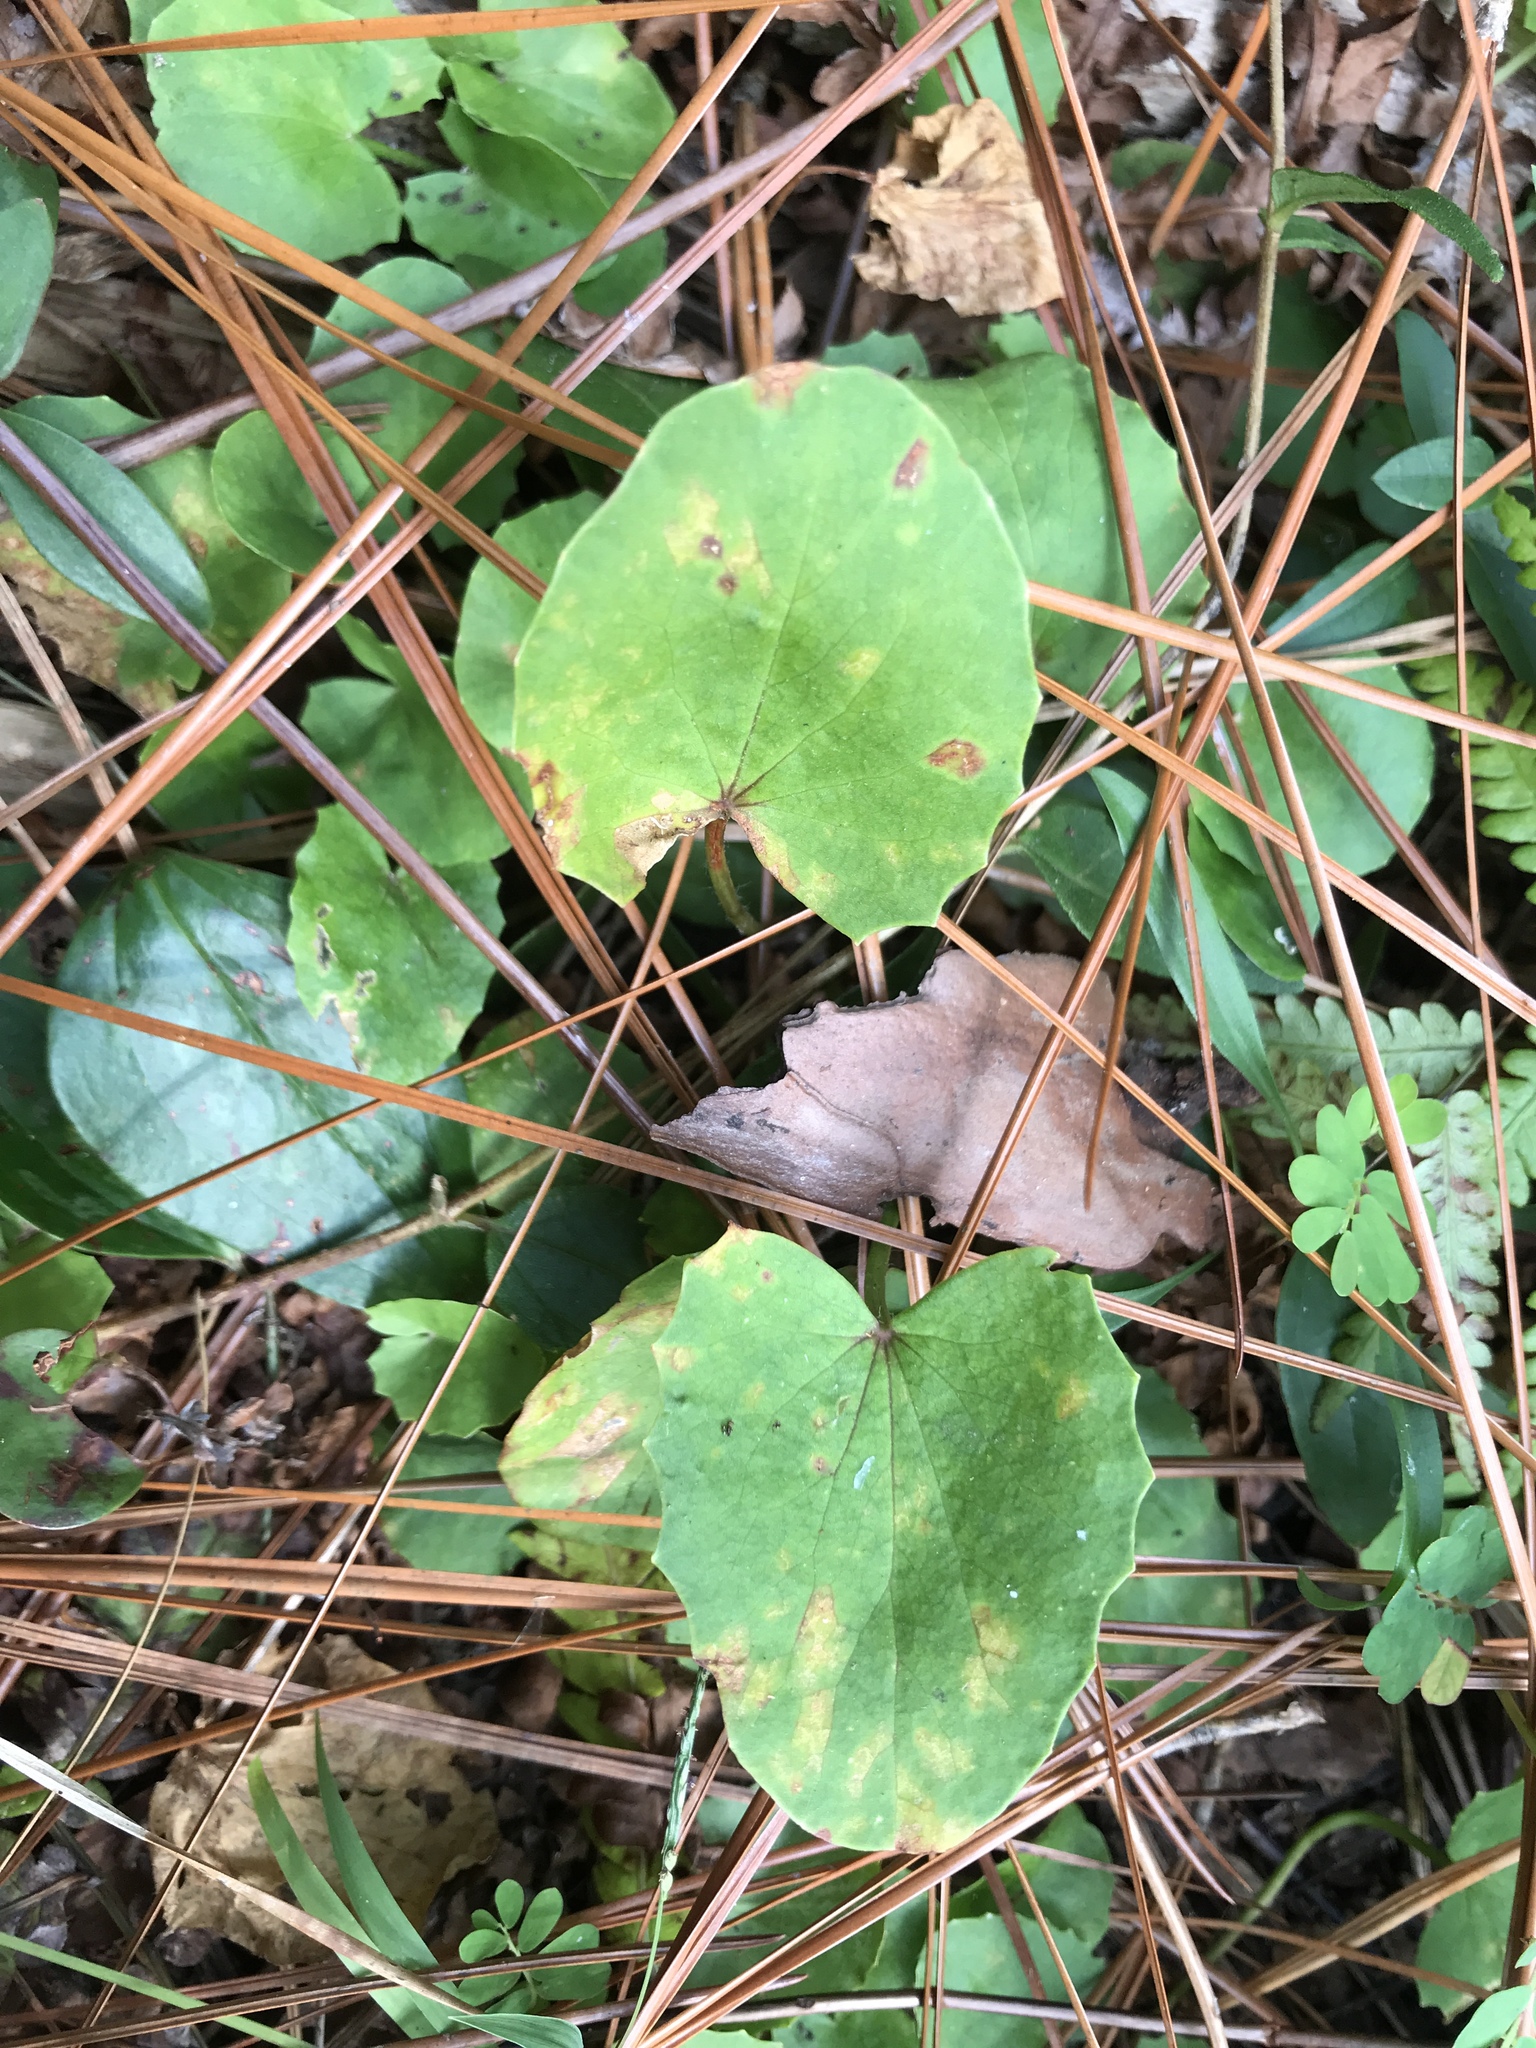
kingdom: Plantae
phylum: Tracheophyta
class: Magnoliopsida
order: Apiales
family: Apiaceae
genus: Centella
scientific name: Centella erecta
